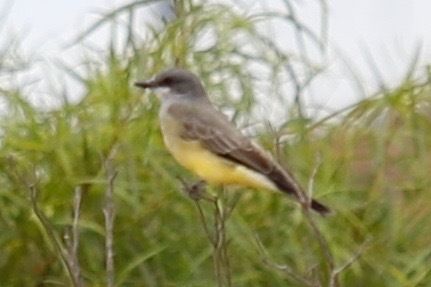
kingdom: Animalia
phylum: Chordata
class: Aves
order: Passeriformes
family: Tyrannidae
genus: Tyrannus
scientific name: Tyrannus vociferans
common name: Cassin's kingbird
